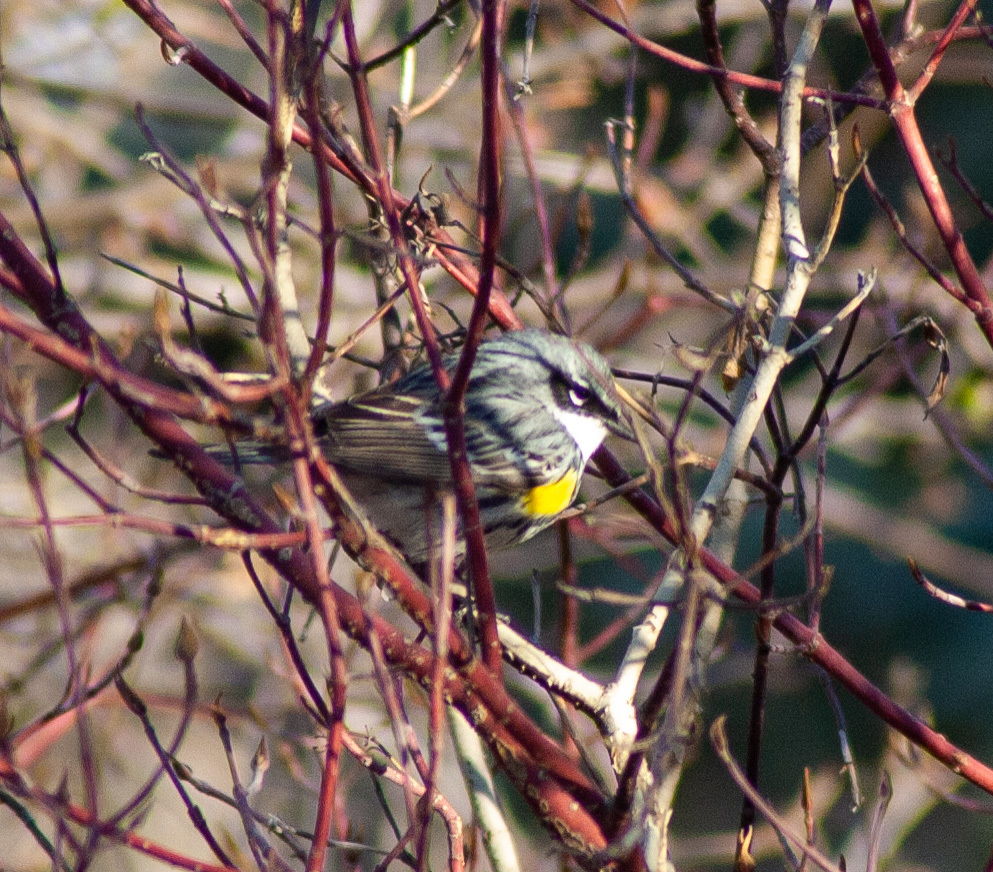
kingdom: Animalia
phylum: Chordata
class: Aves
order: Passeriformes
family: Parulidae
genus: Setophaga
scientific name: Setophaga coronata
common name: Myrtle warbler
